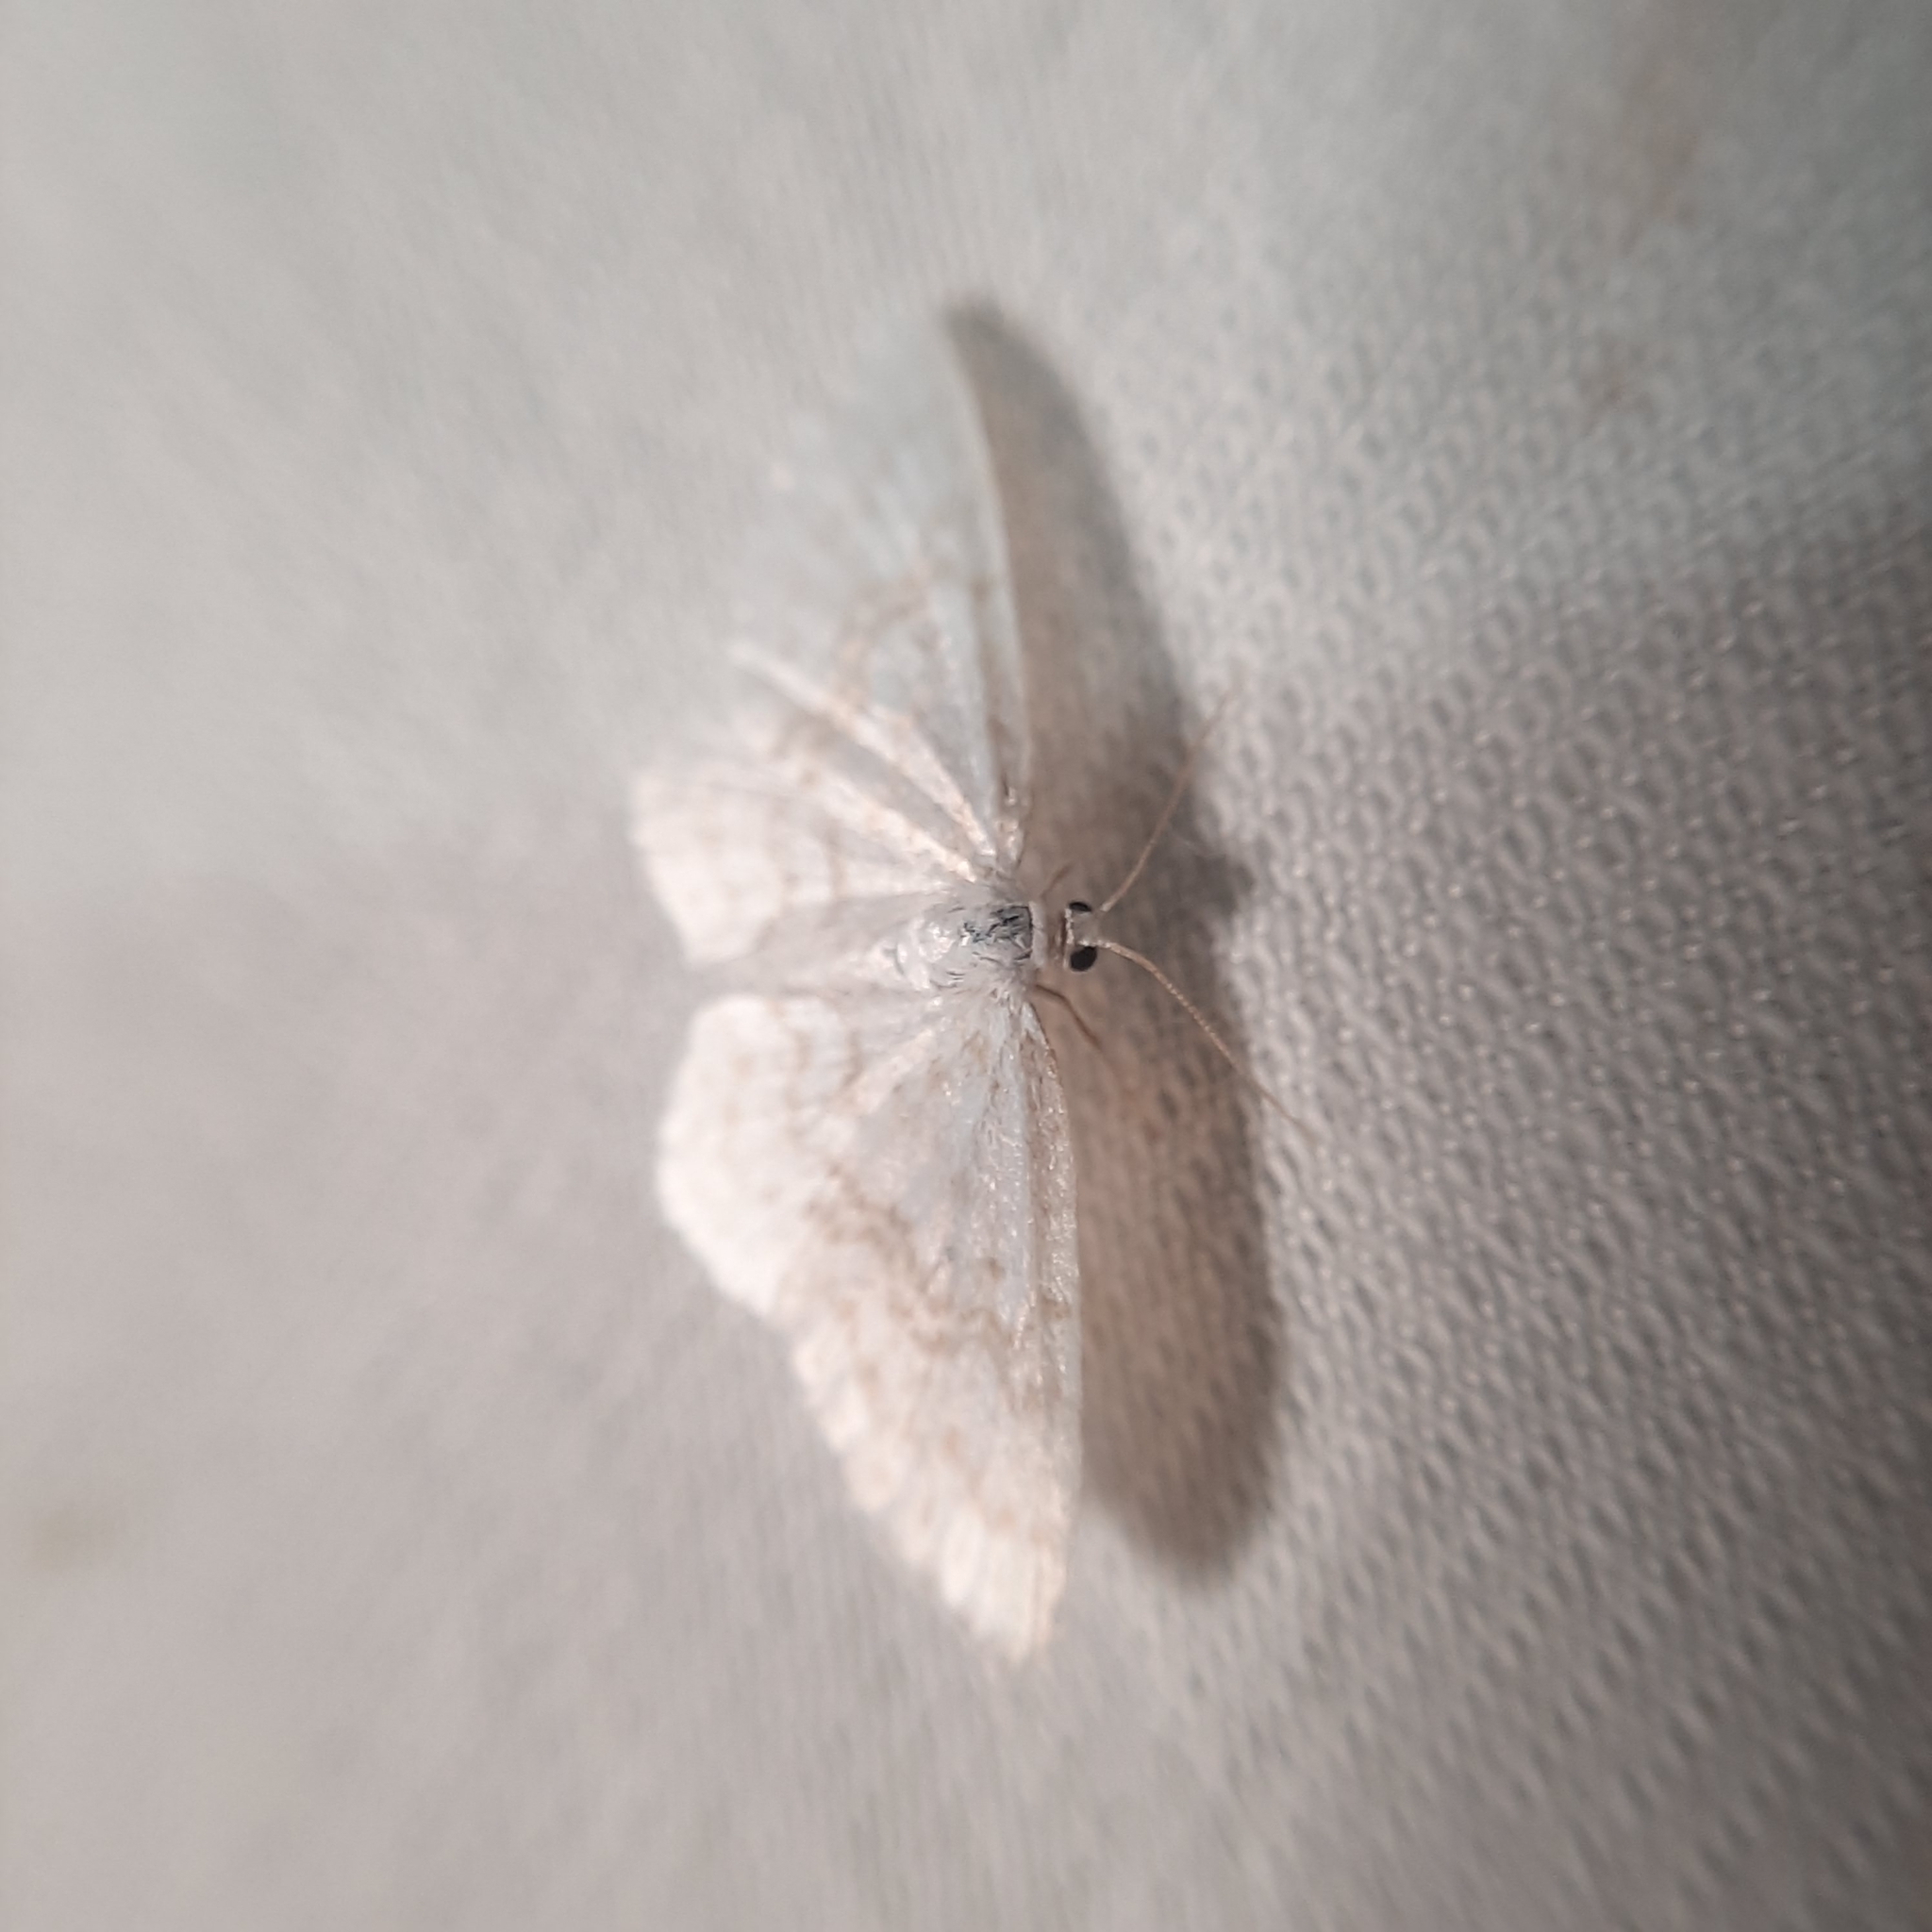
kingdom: Animalia
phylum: Arthropoda
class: Insecta
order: Lepidoptera
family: Geometridae
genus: Asthena
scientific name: Asthena albulata
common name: Small white wave
